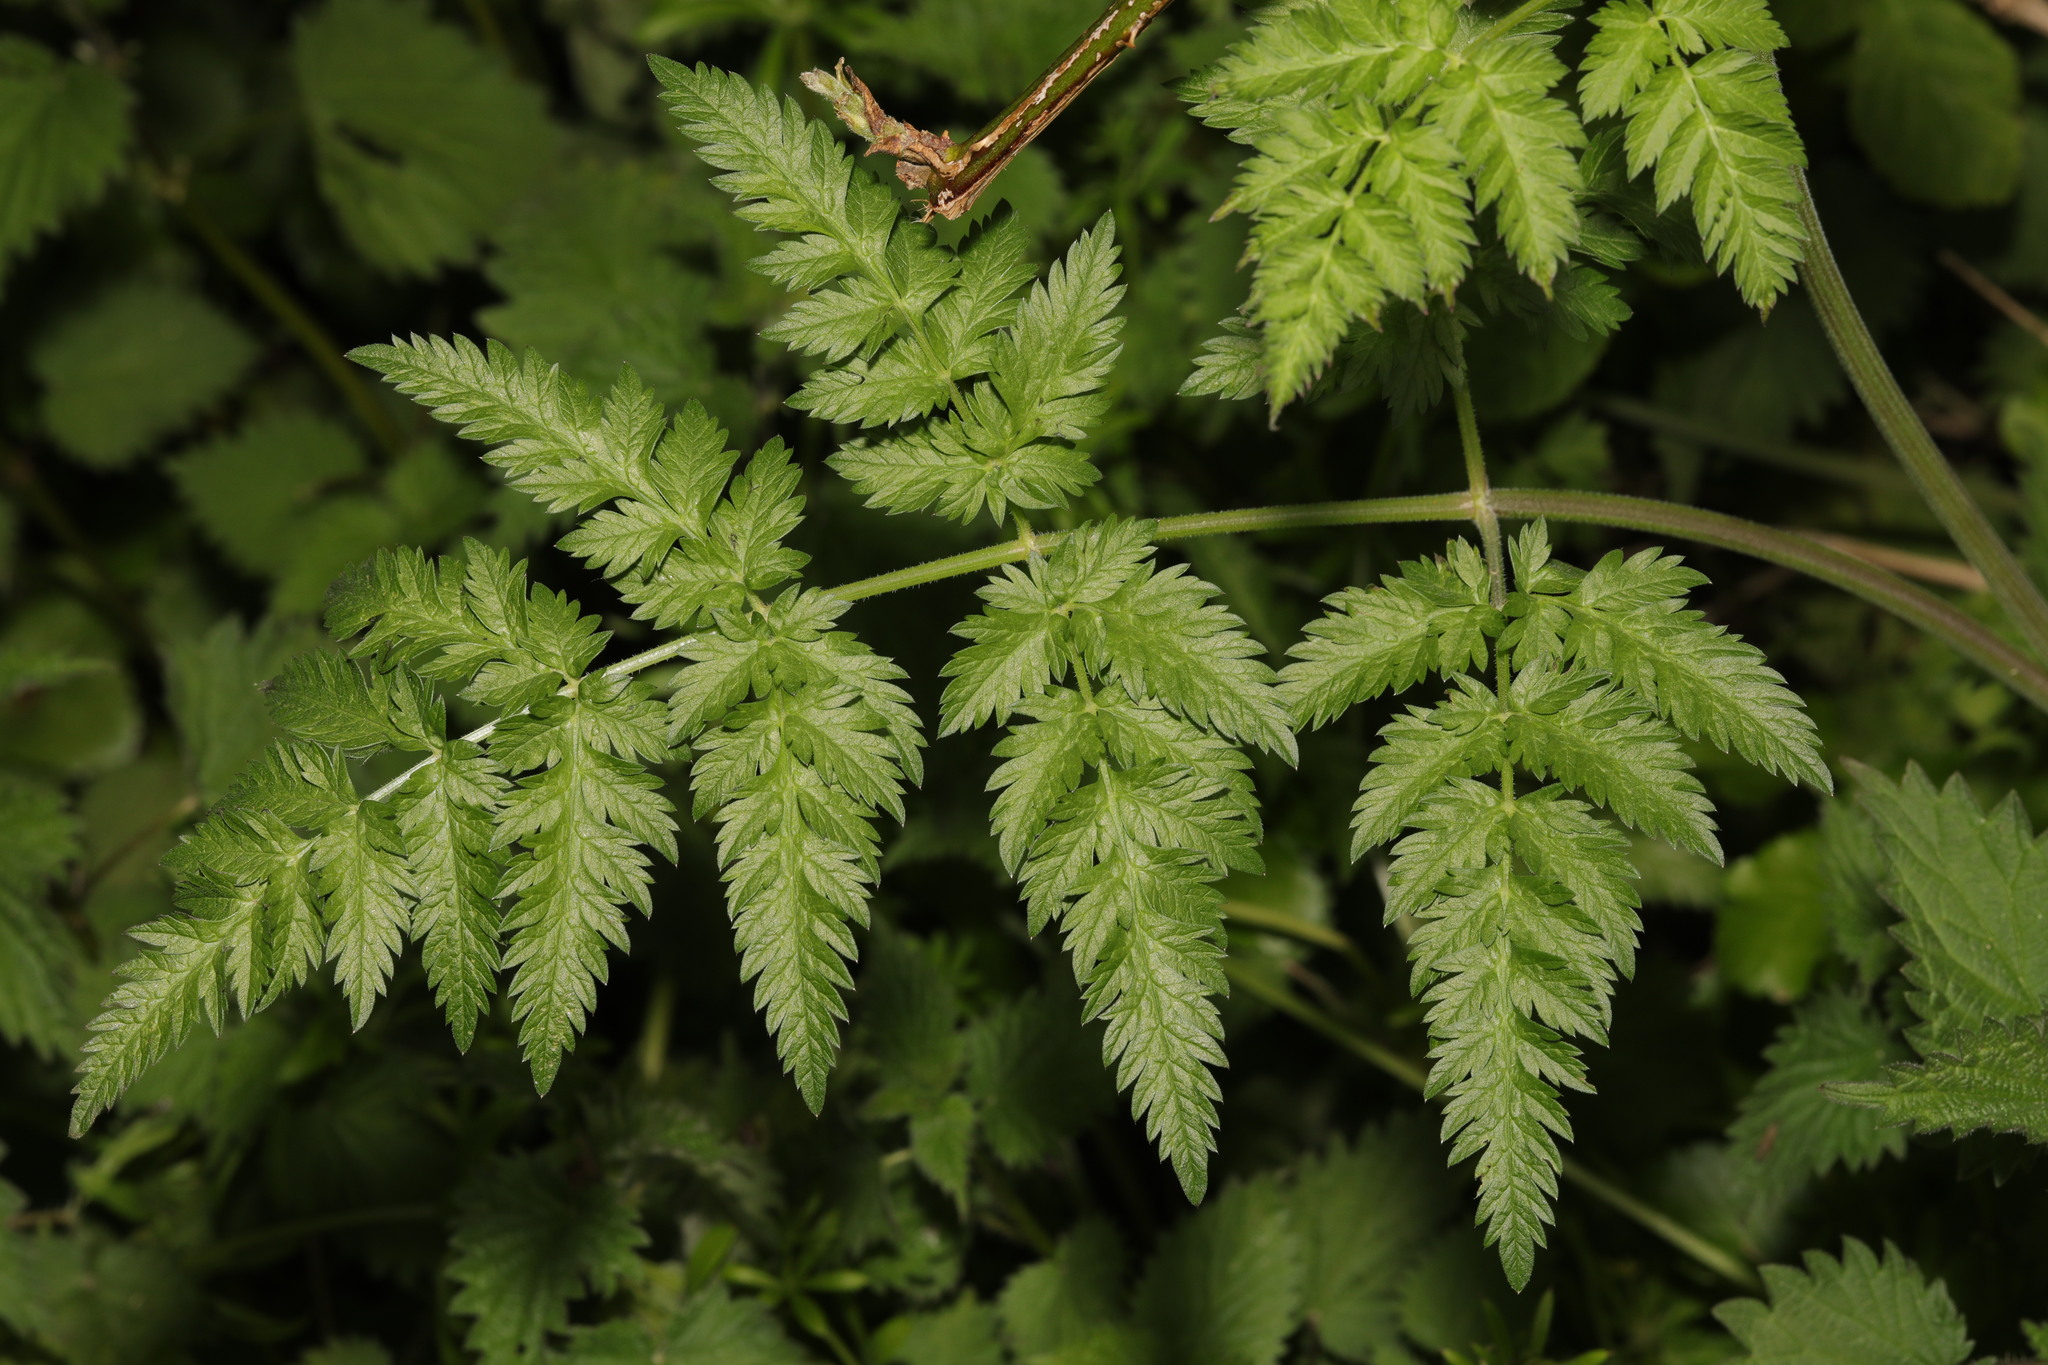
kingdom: Plantae
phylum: Tracheophyta
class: Magnoliopsida
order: Apiales
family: Apiaceae
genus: Anthriscus
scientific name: Anthriscus sylvestris
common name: Cow parsley
